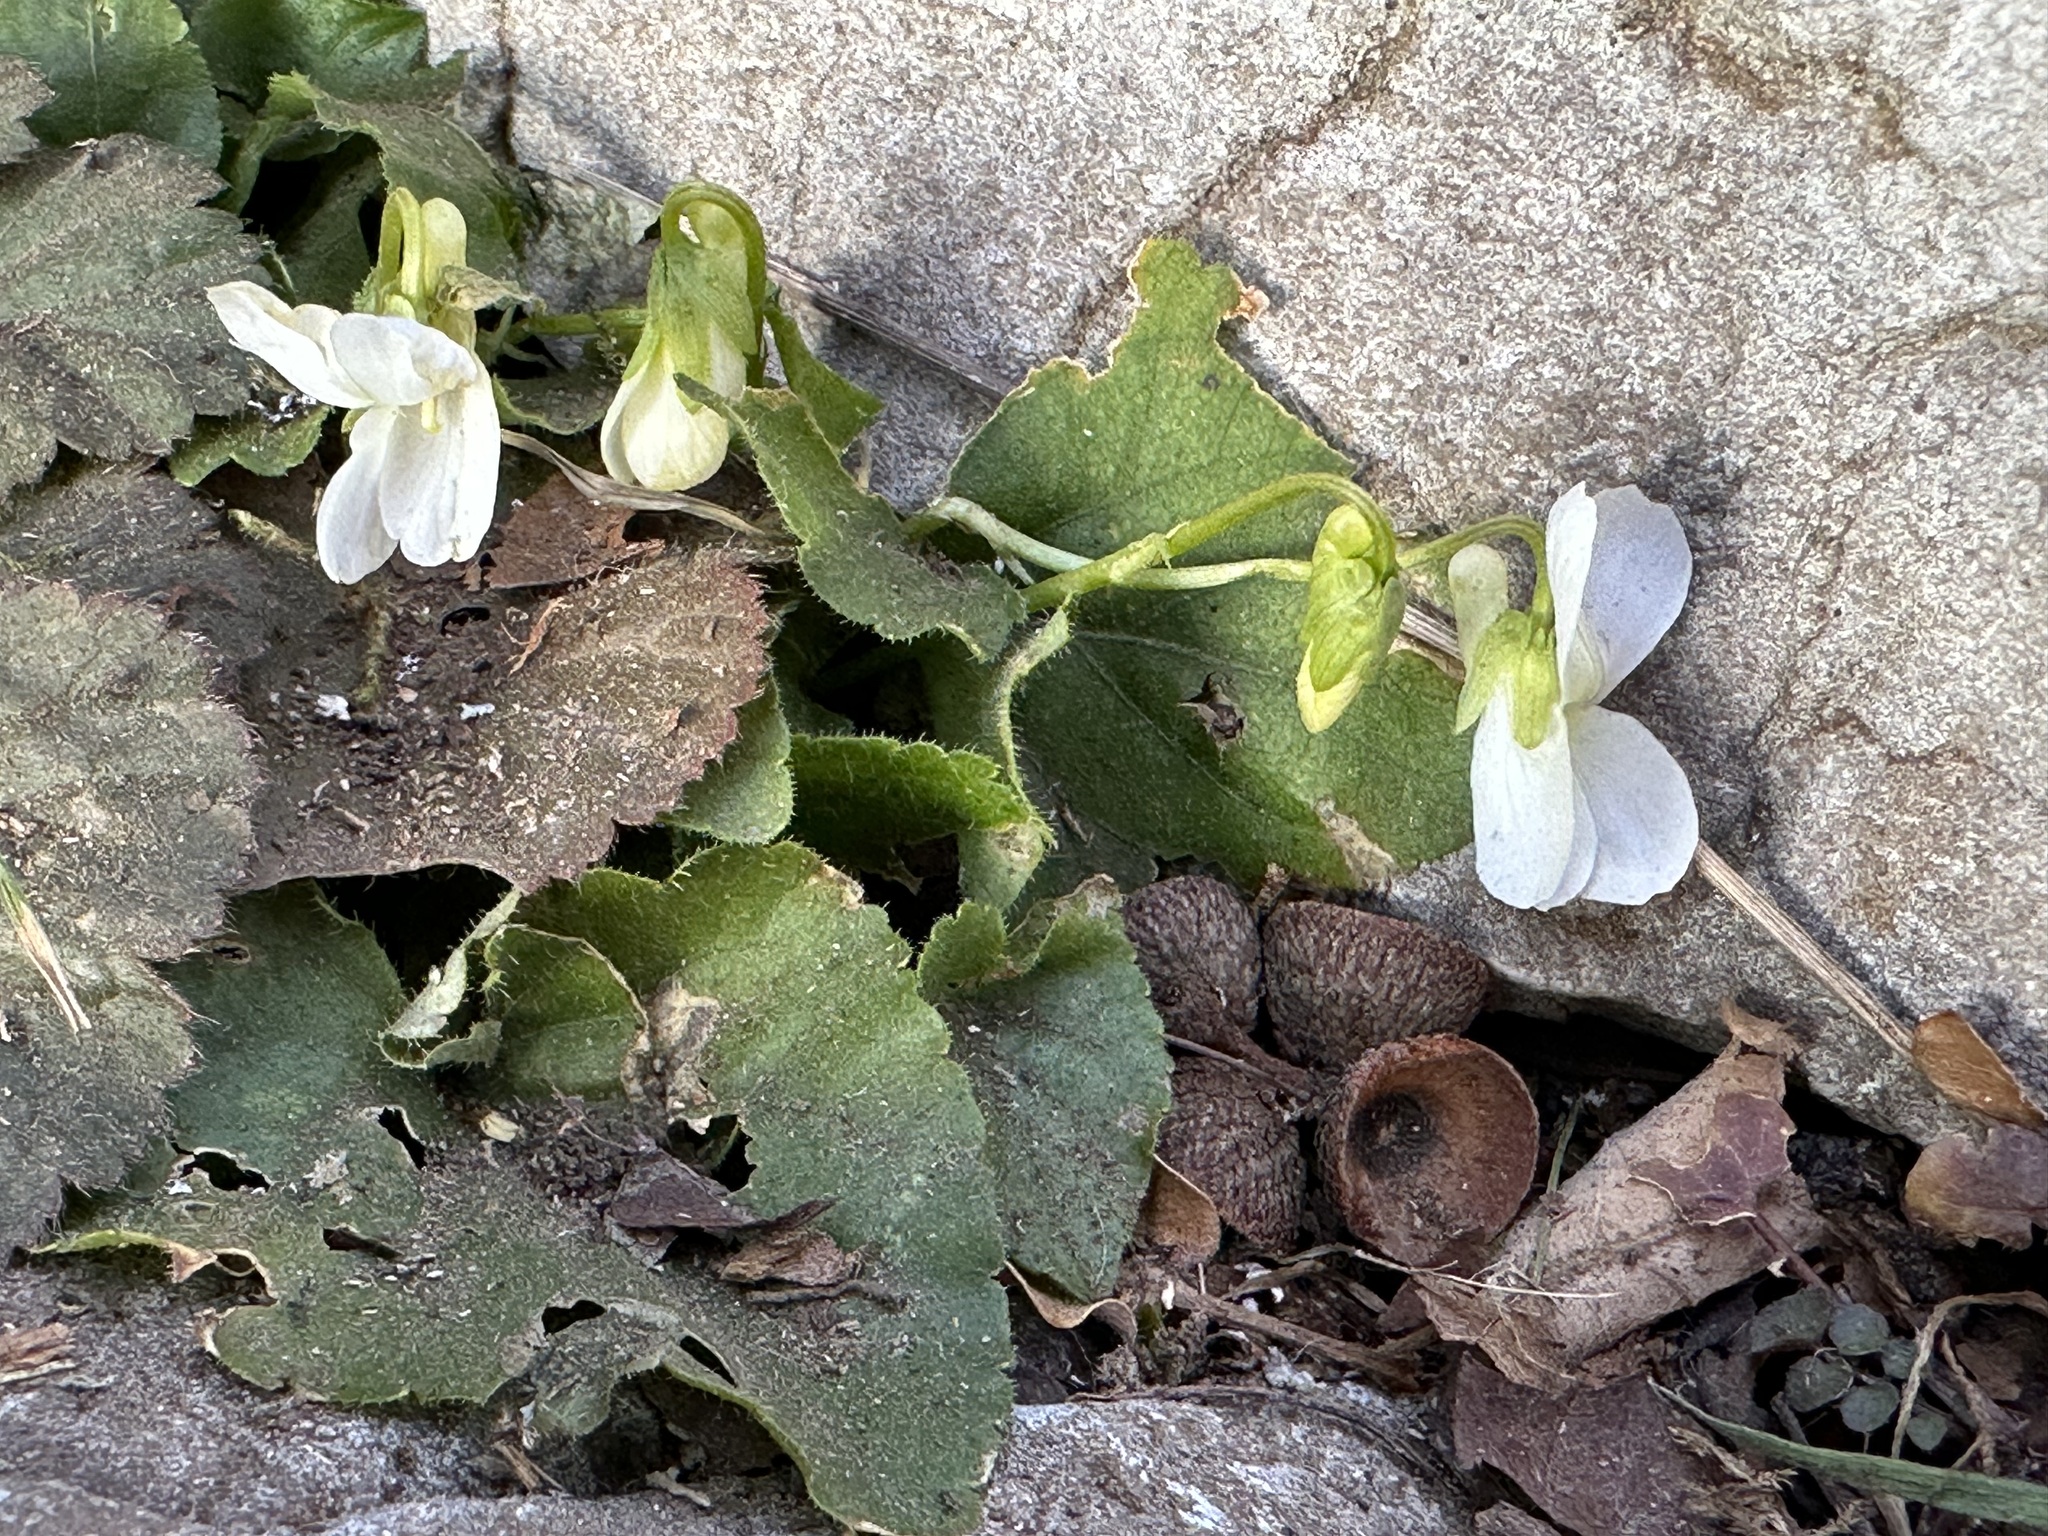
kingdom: Plantae
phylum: Tracheophyta
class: Magnoliopsida
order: Malpighiales
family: Violaceae
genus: Viola
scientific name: Viola alba
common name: White violet
